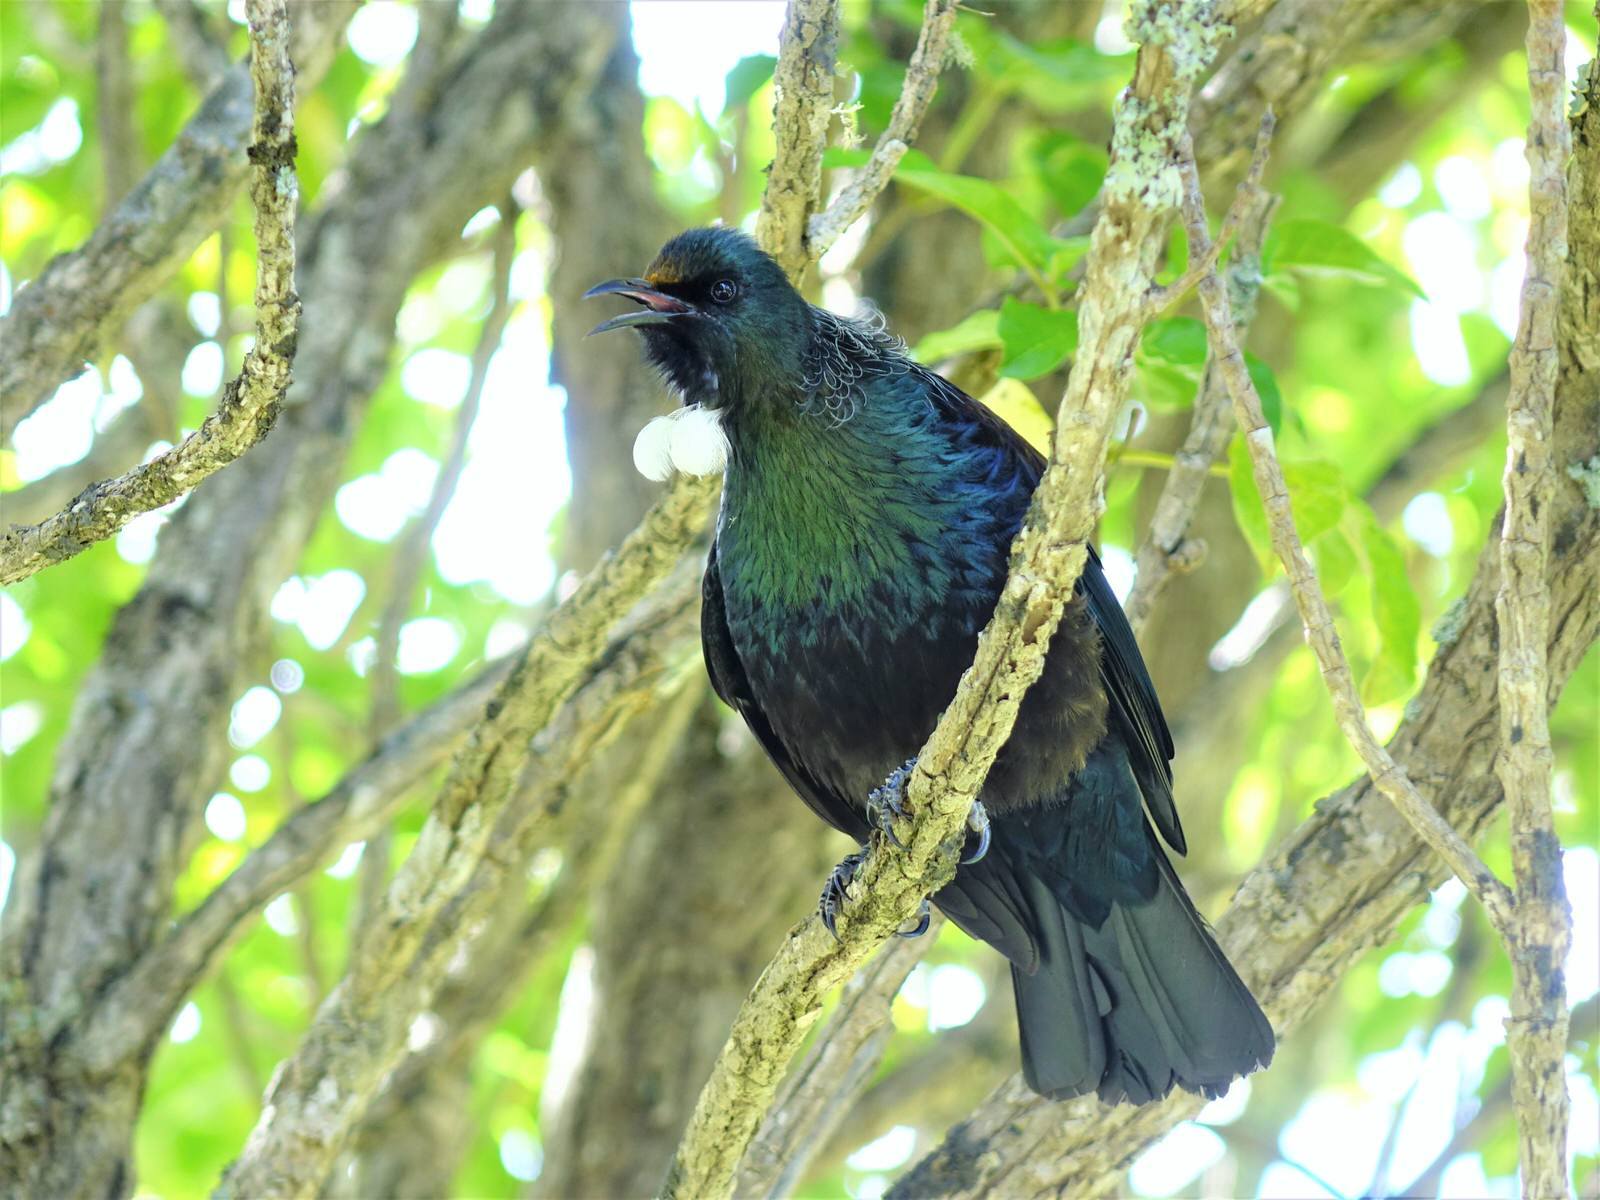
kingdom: Animalia
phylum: Chordata
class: Aves
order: Passeriformes
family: Meliphagidae
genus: Prosthemadera
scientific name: Prosthemadera novaeseelandiae
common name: Tui
